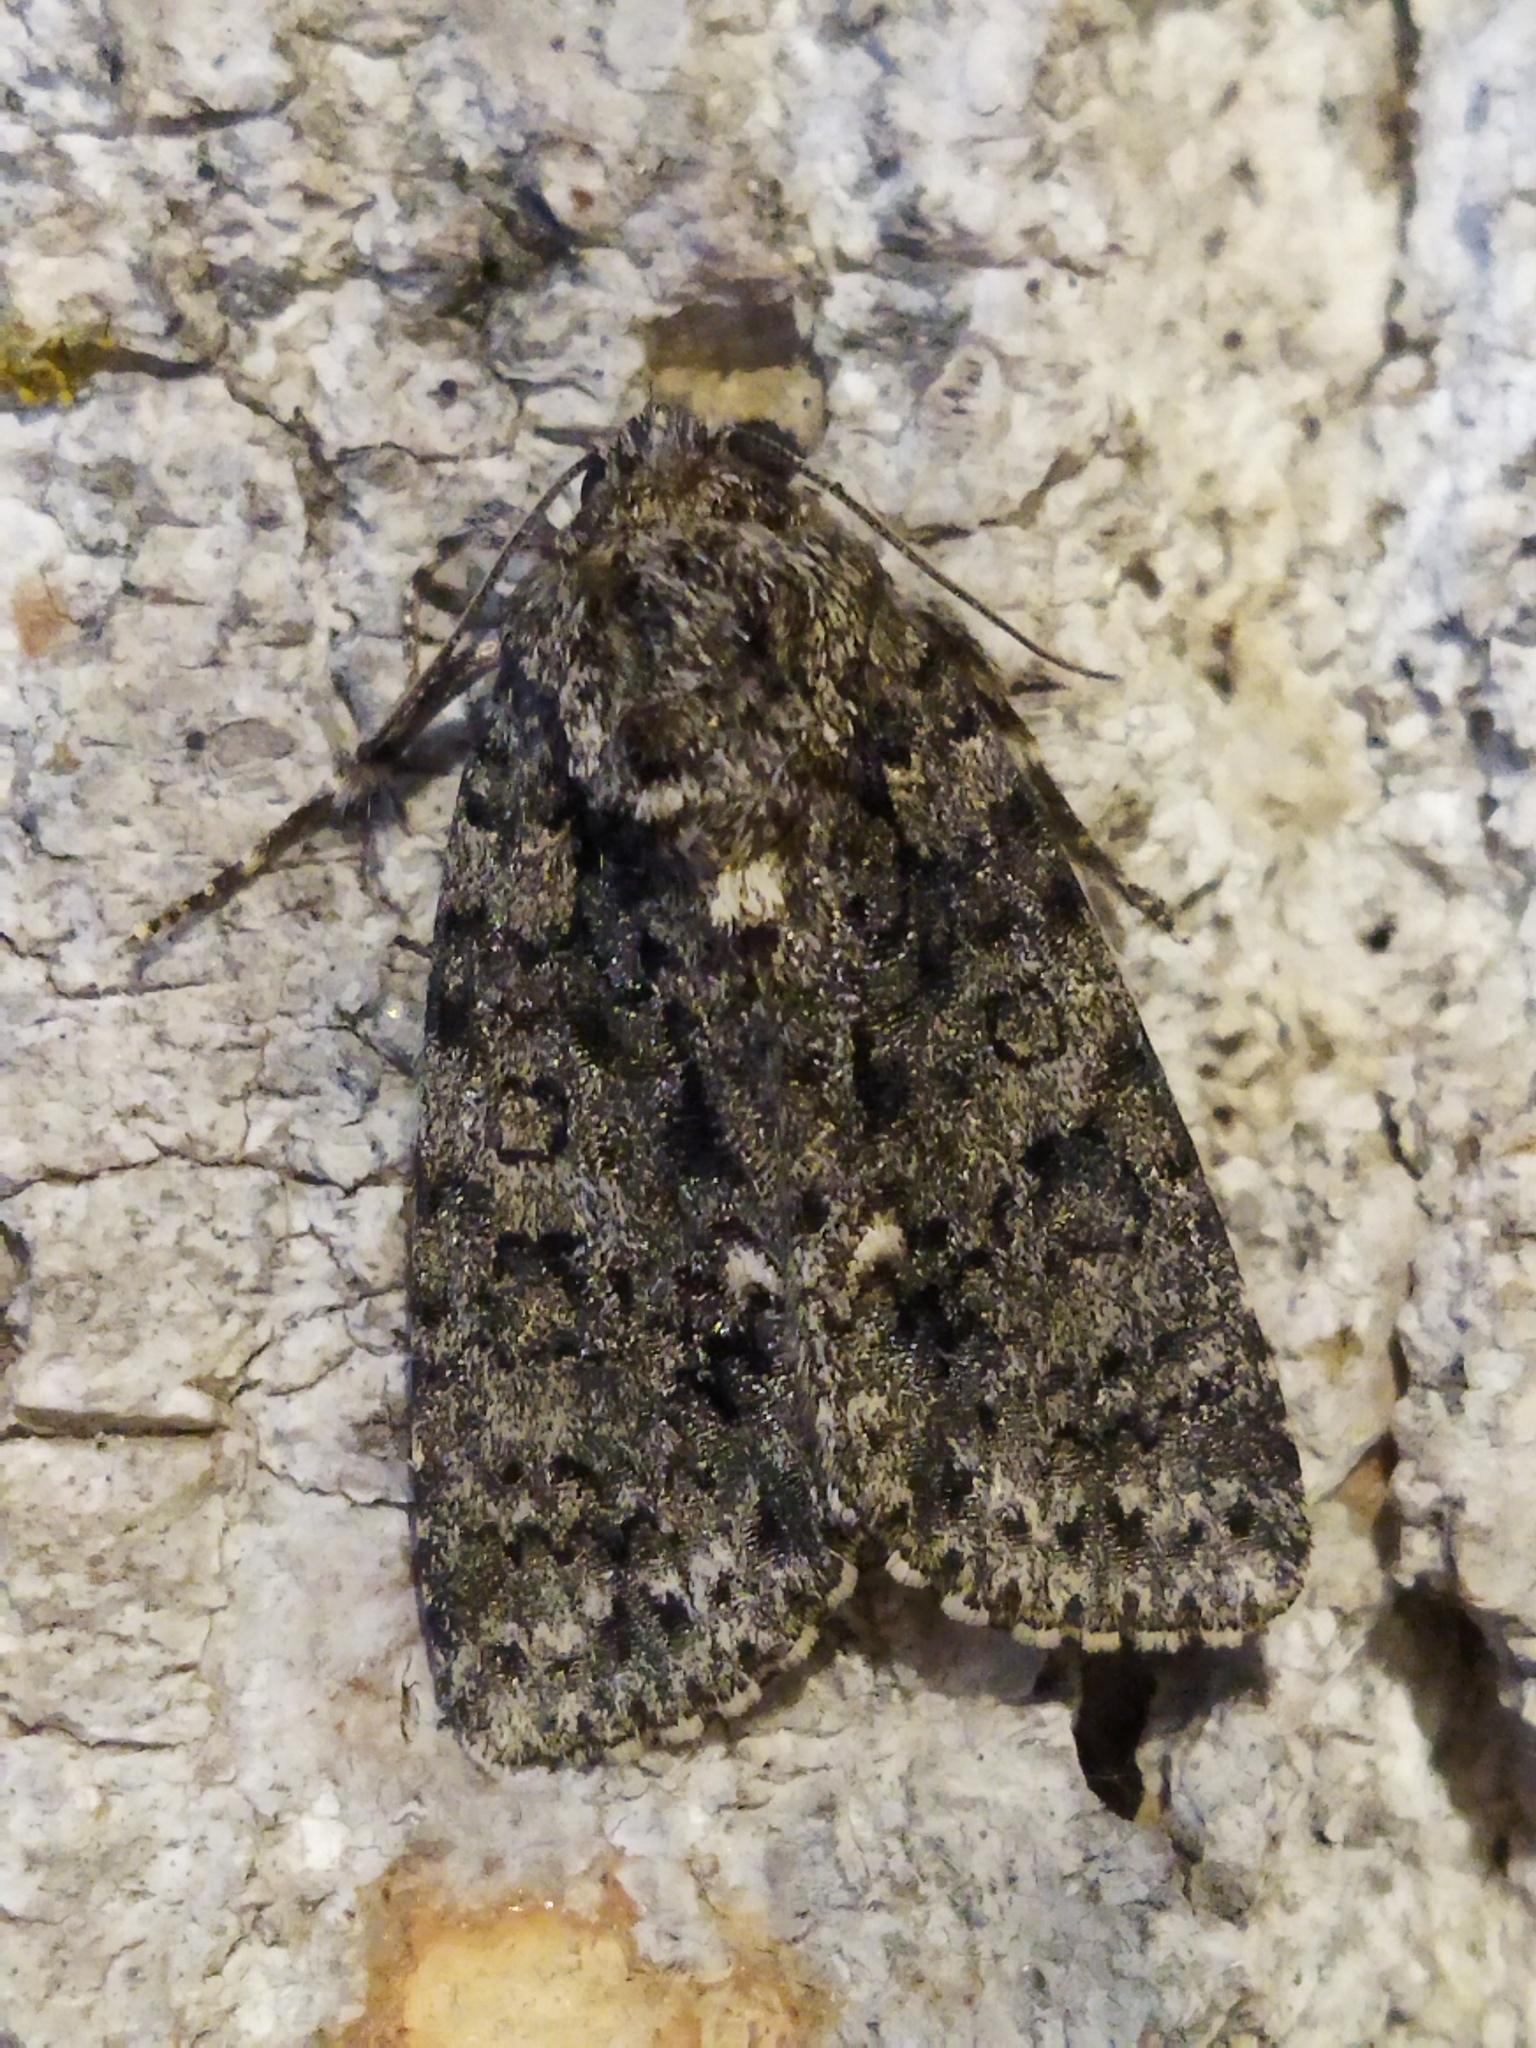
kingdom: Animalia
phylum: Arthropoda
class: Insecta
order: Lepidoptera
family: Noctuidae
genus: Acronicta
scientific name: Acronicta rumicis
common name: Knot grass
